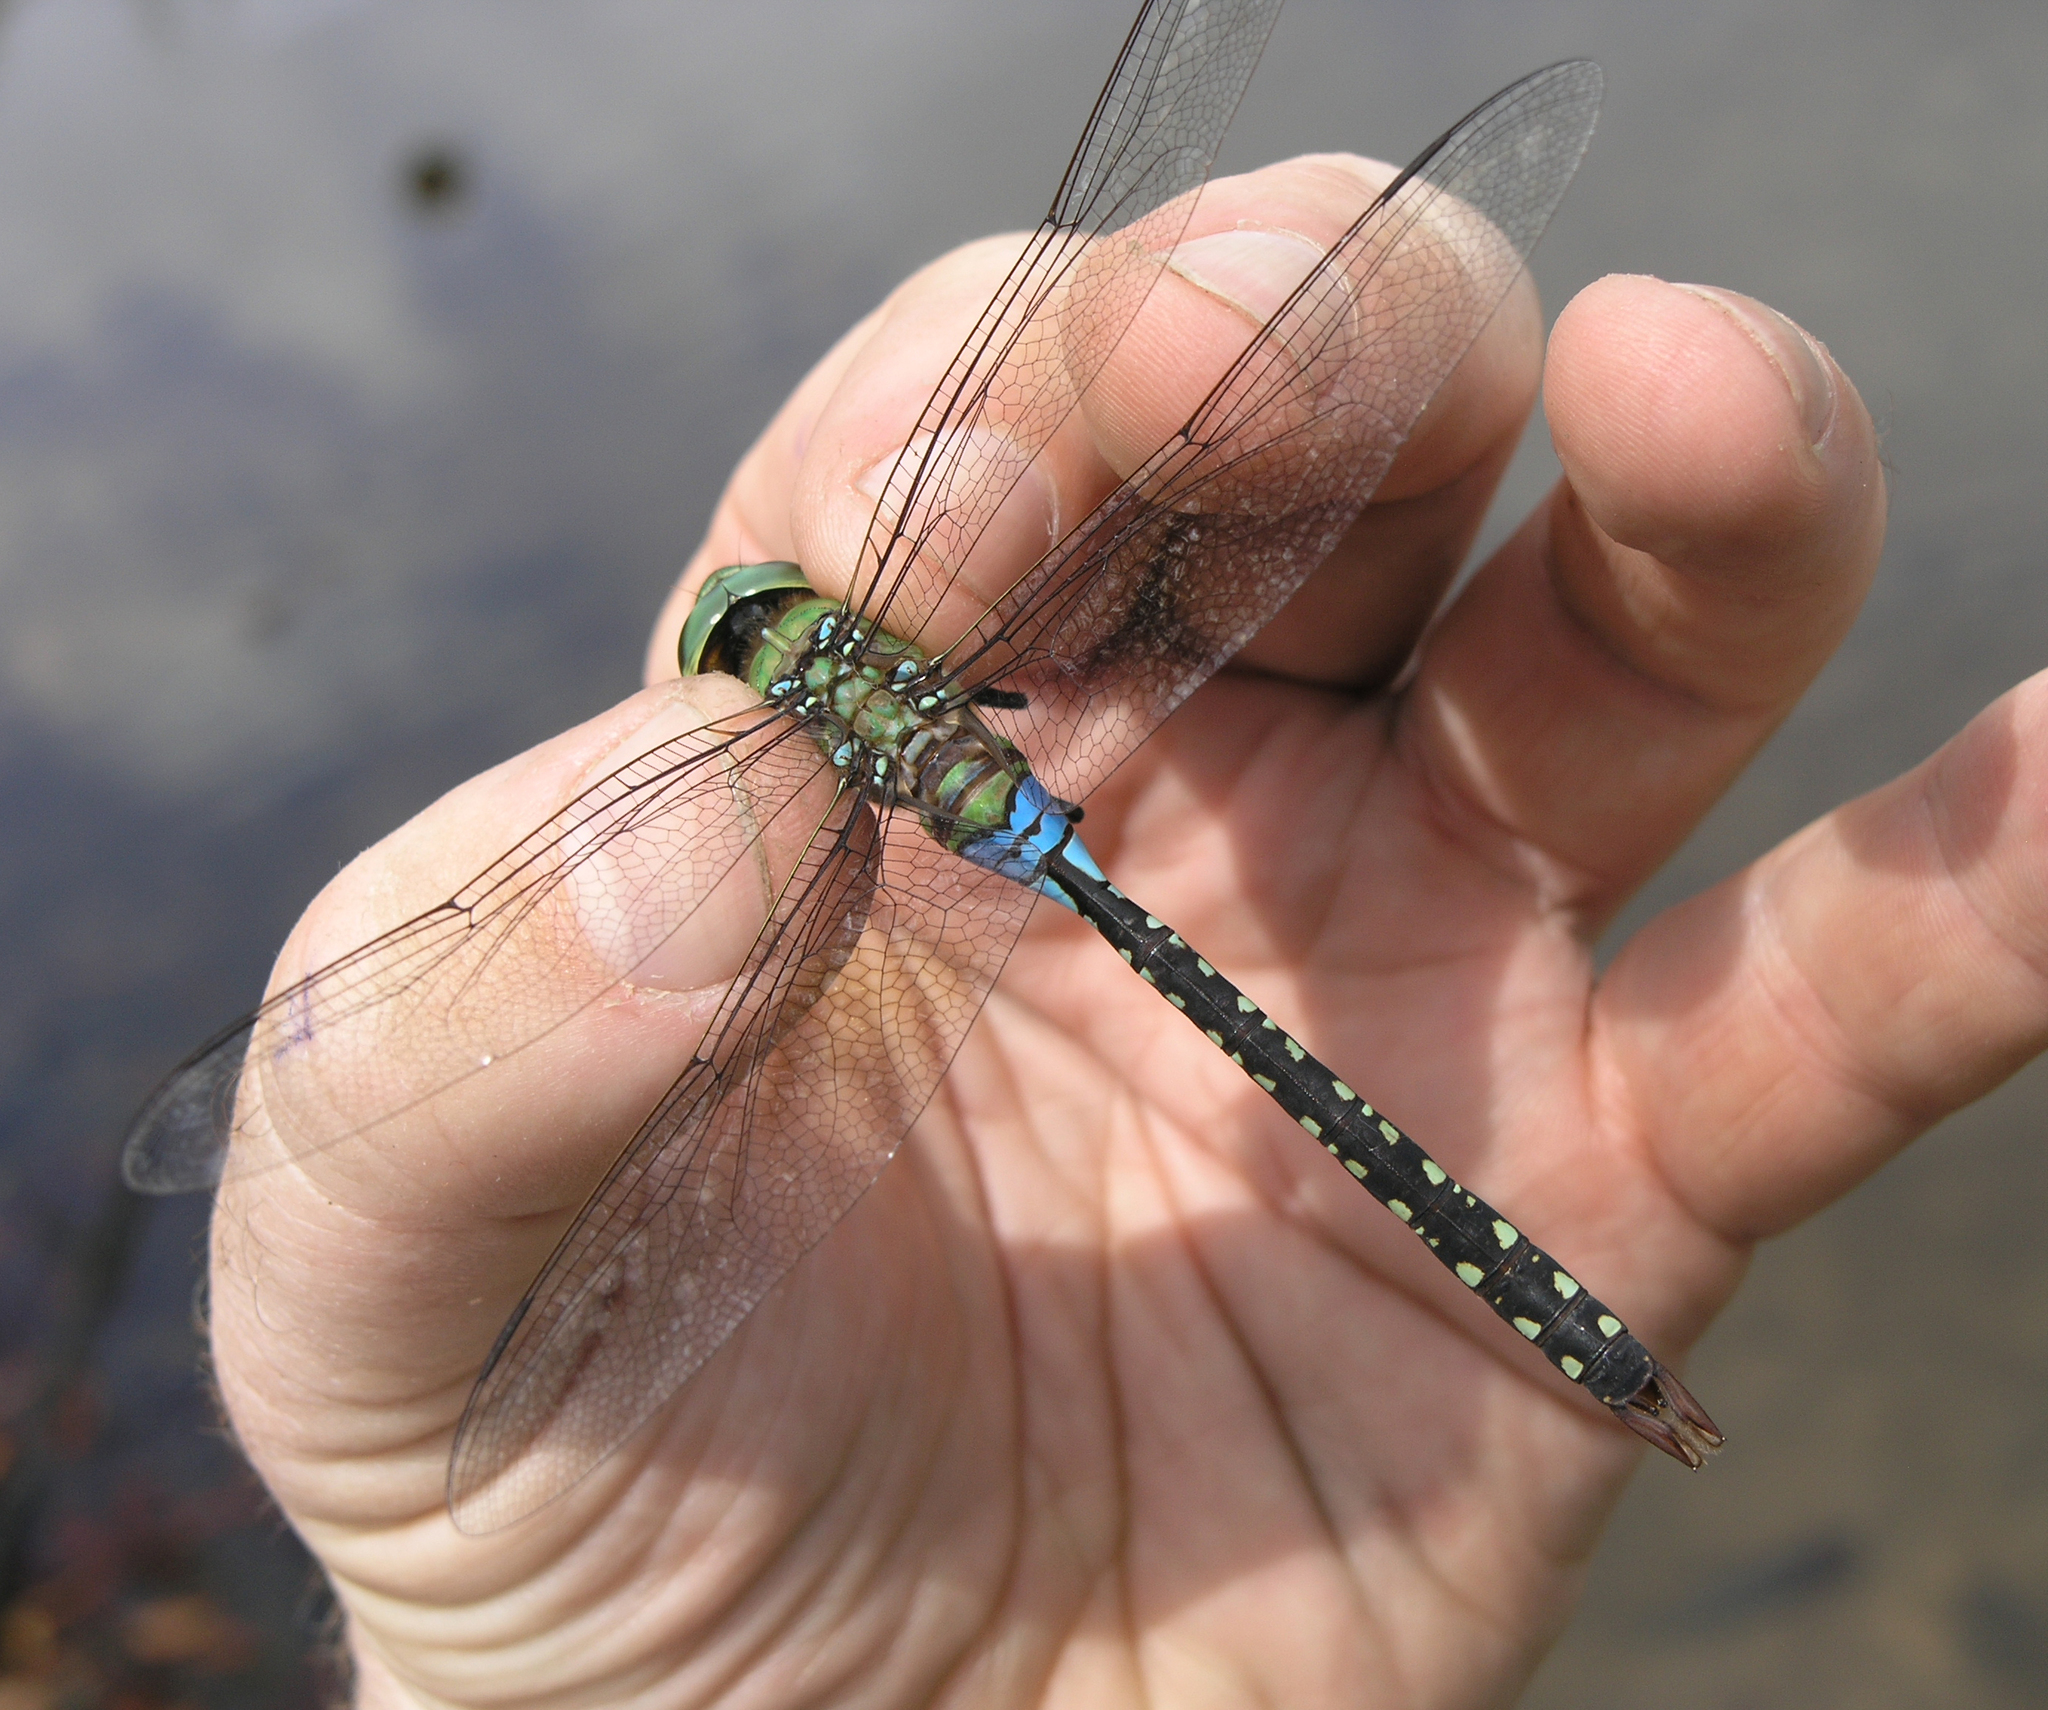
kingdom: Animalia
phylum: Arthropoda
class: Insecta
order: Odonata
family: Aeshnidae
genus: Anax
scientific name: Anax guttatus
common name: Emperor
